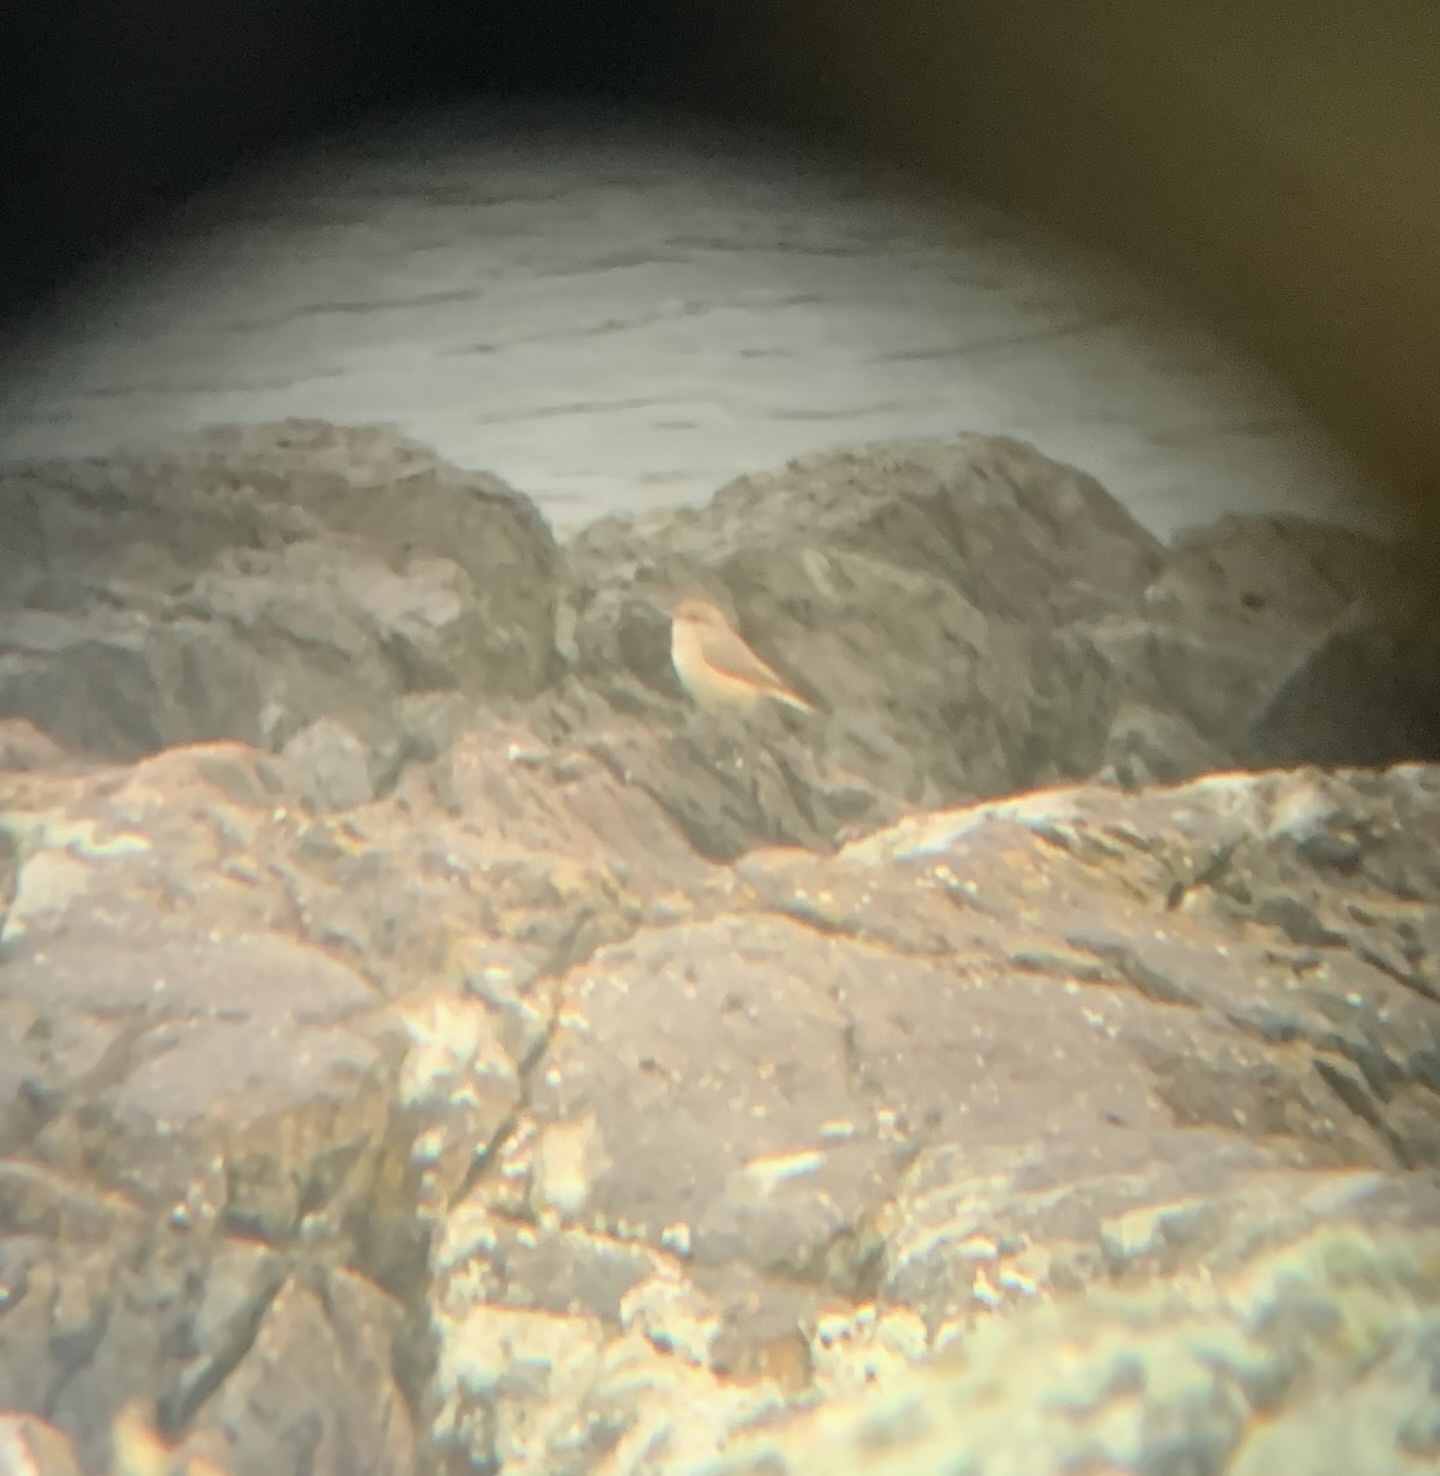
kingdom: Animalia
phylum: Chordata
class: Aves
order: Passeriformes
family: Troglodytidae
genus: Salpinctes
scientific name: Salpinctes obsoletus
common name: Rock wren
